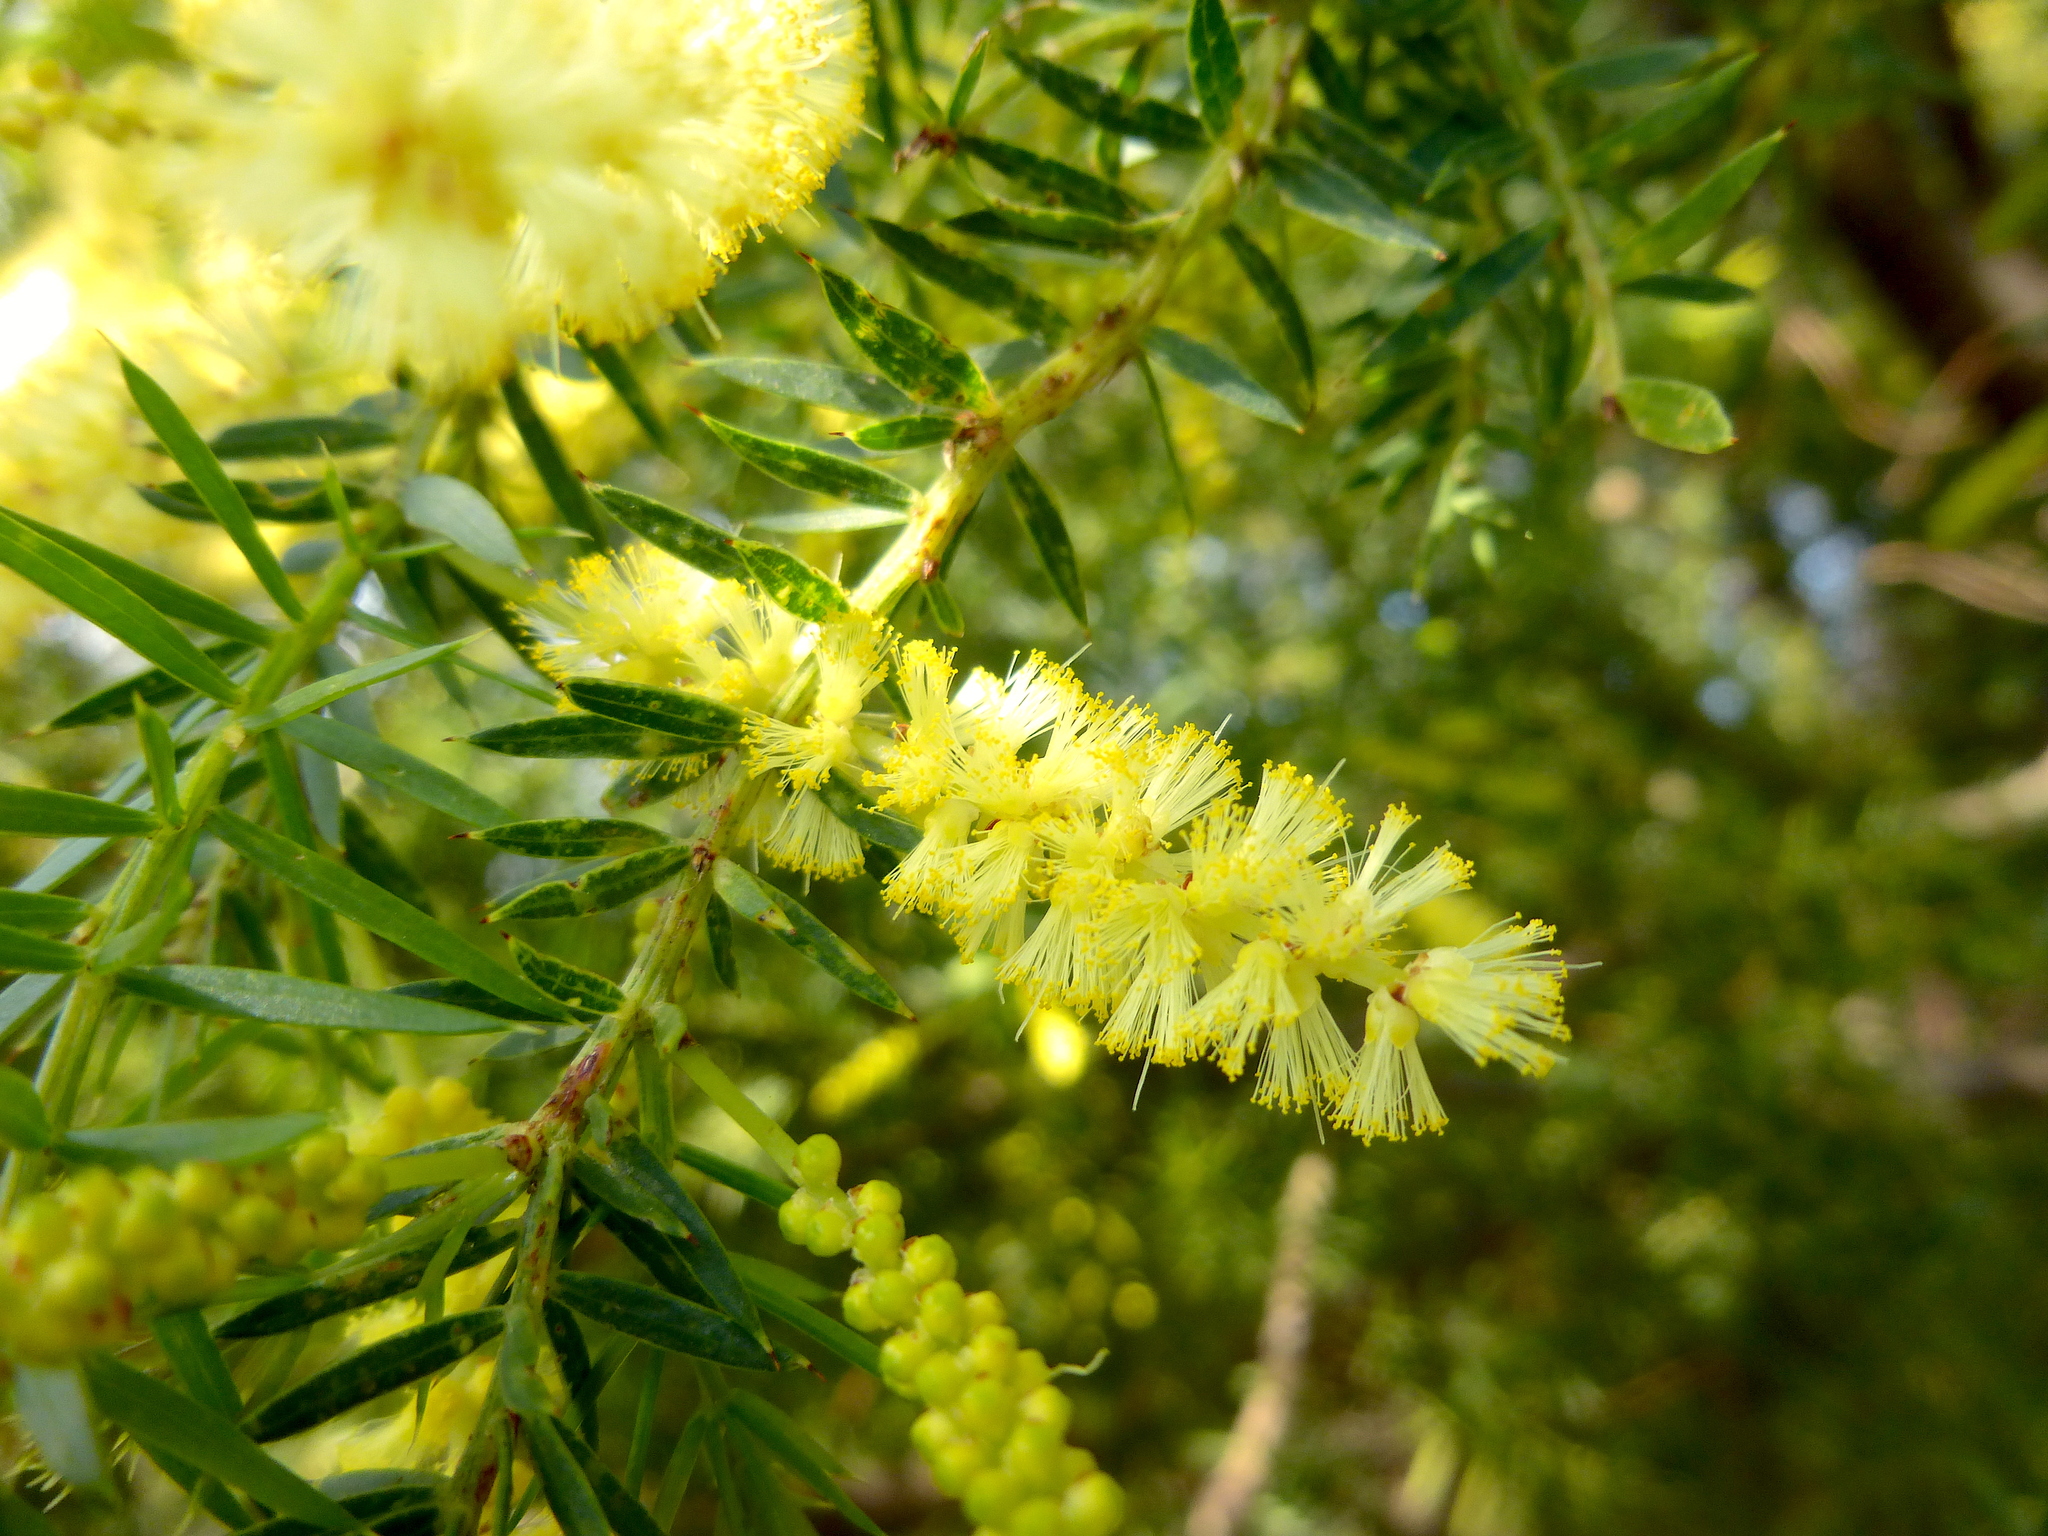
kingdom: Plantae
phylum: Tracheophyta
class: Magnoliopsida
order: Fabales
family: Fabaceae
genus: Acacia
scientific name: Acacia verticillata
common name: Prickly moses
